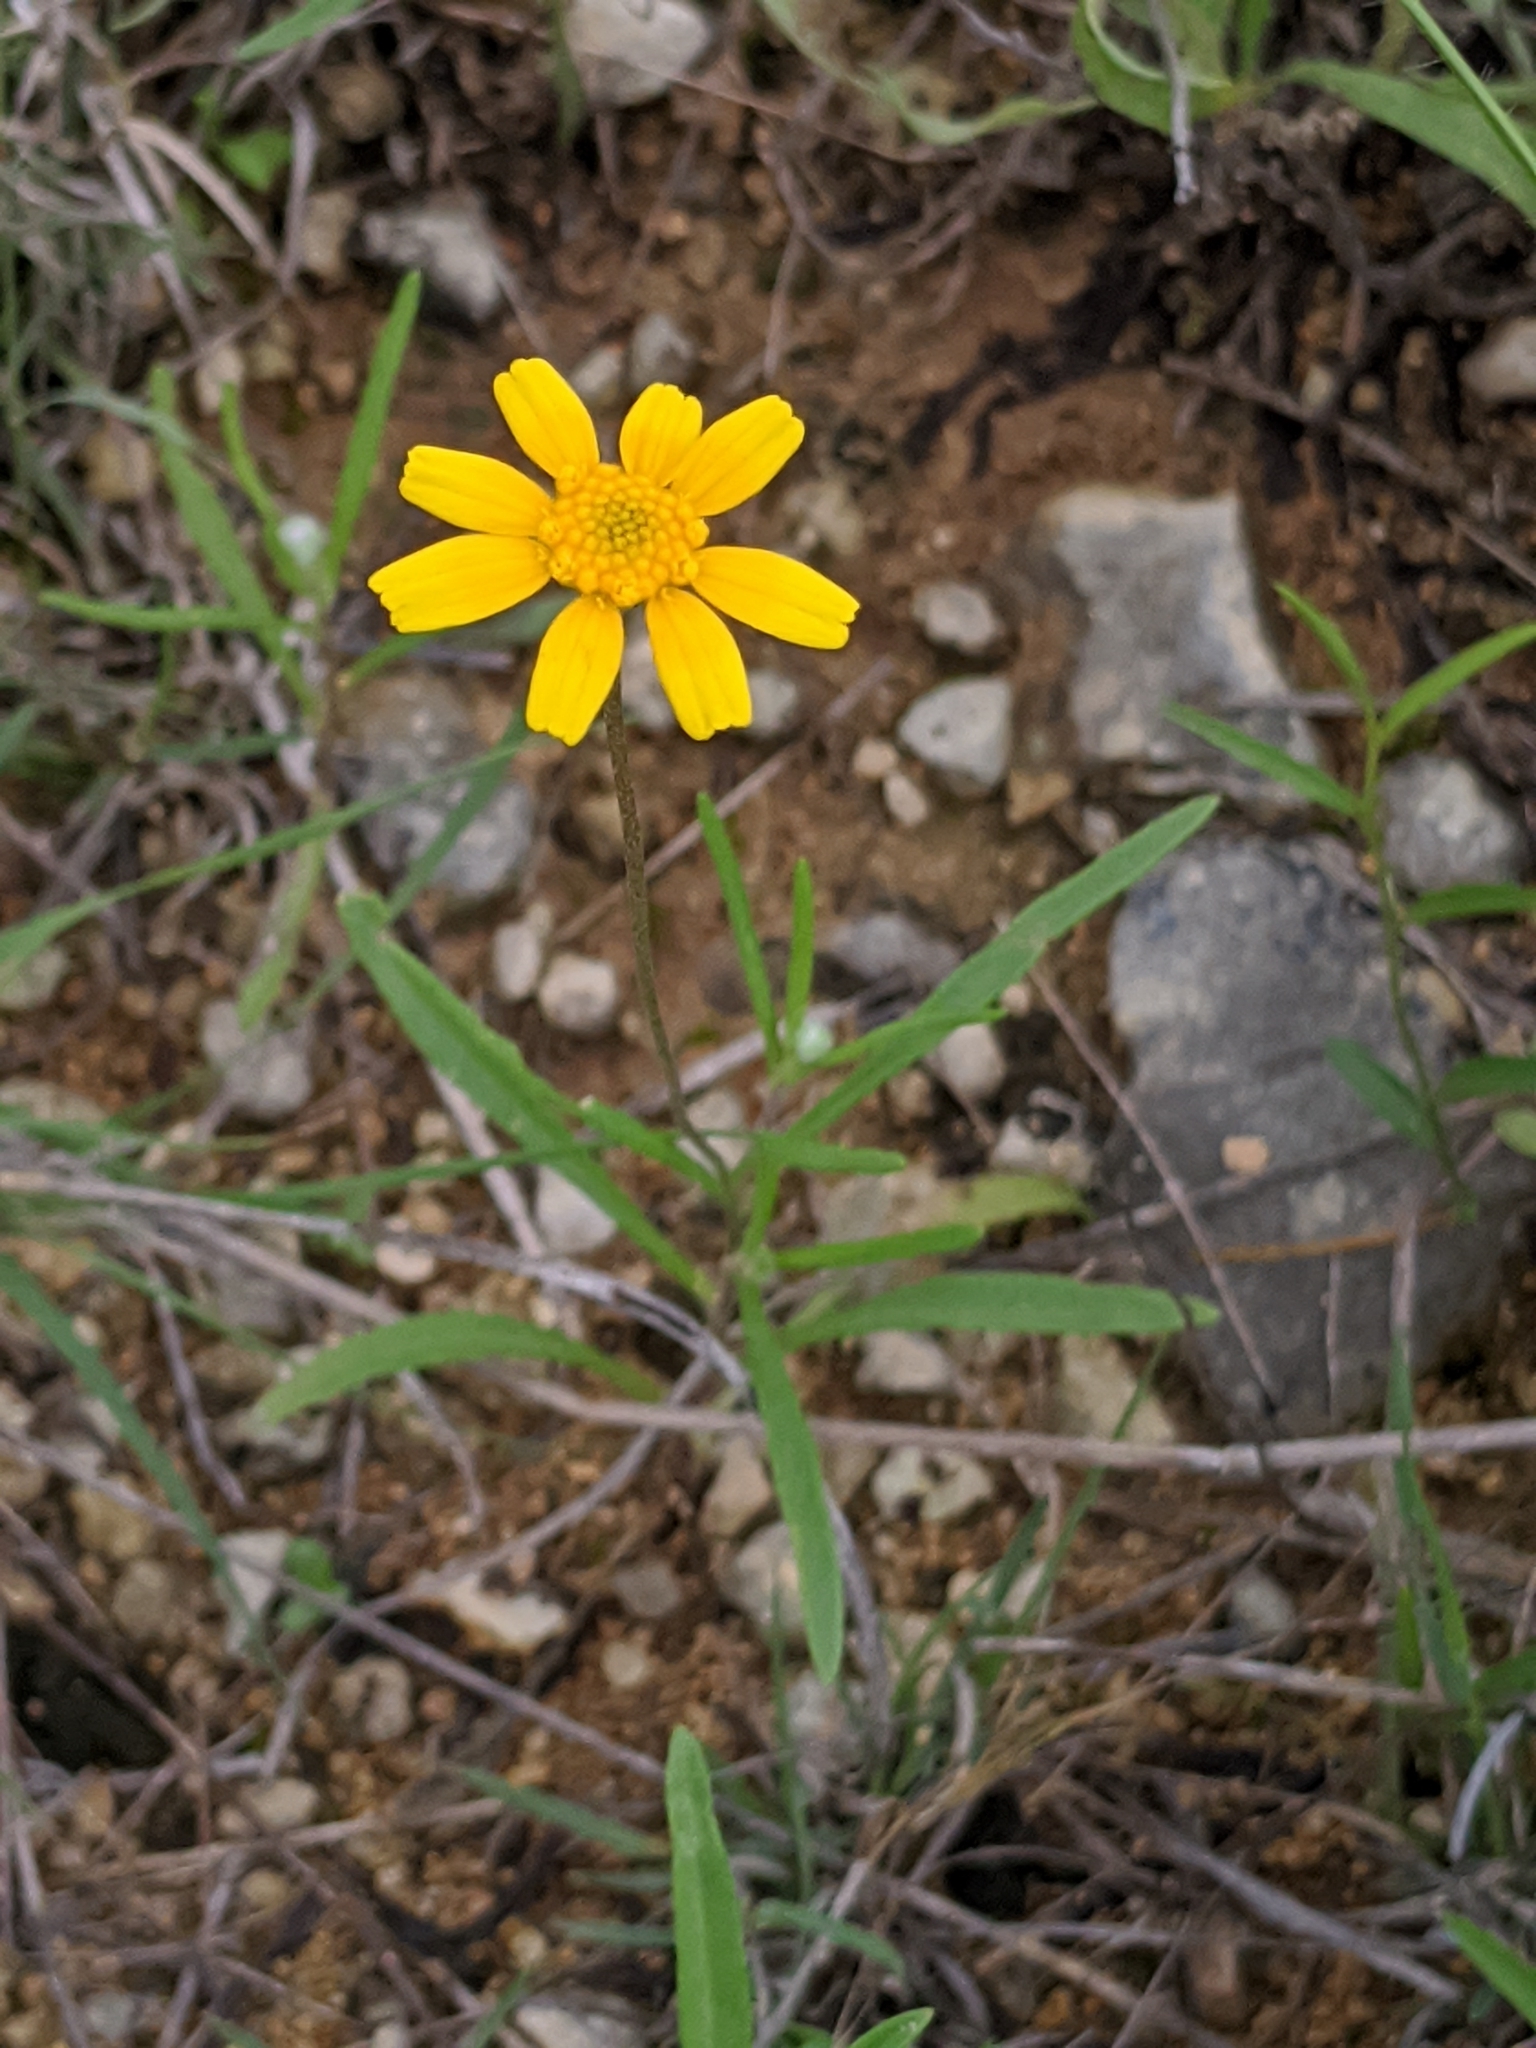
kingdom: Plantae
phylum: Tracheophyta
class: Magnoliopsida
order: Asterales
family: Asteraceae
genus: Tetraneuris
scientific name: Tetraneuris linearifolia
